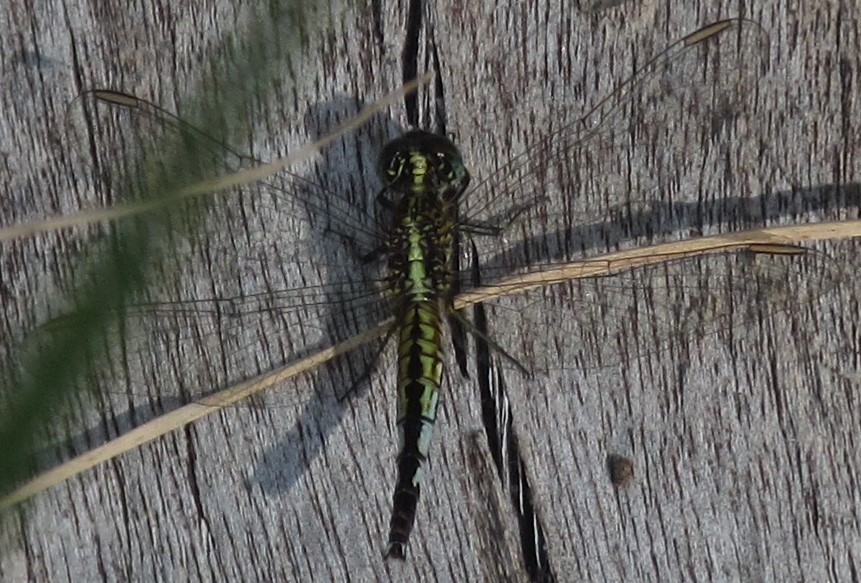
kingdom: Animalia
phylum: Arthropoda
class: Insecta
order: Odonata
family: Libellulidae
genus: Acisoma
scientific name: Acisoma inflatum
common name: Stout pintail
